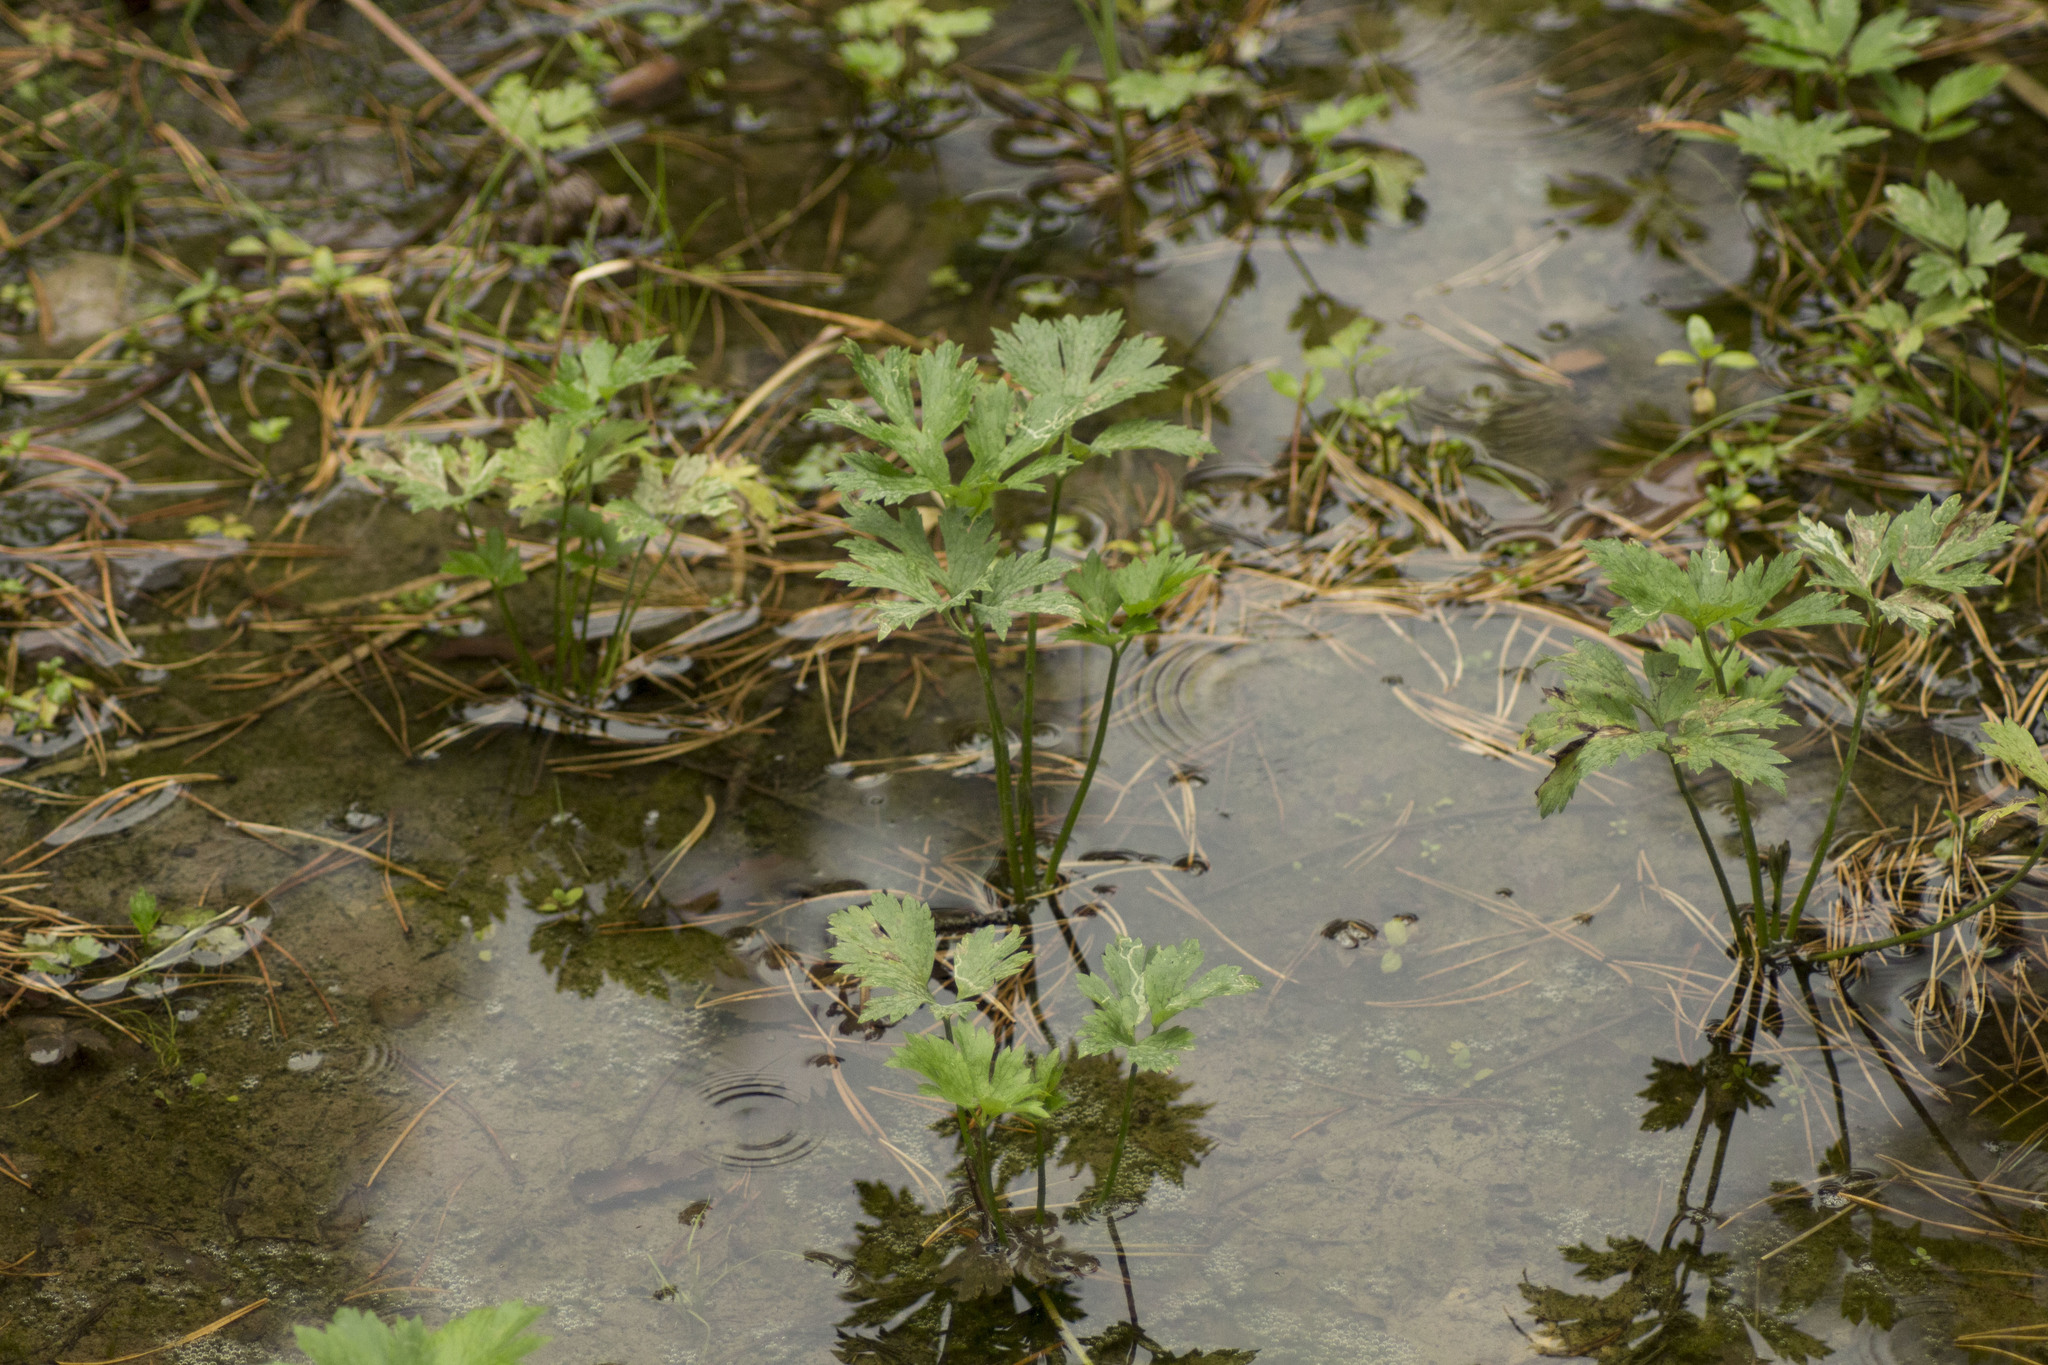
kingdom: Plantae
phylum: Tracheophyta
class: Magnoliopsida
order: Ranunculales
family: Ranunculaceae
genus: Ranunculus
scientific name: Ranunculus repens
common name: Creeping buttercup
